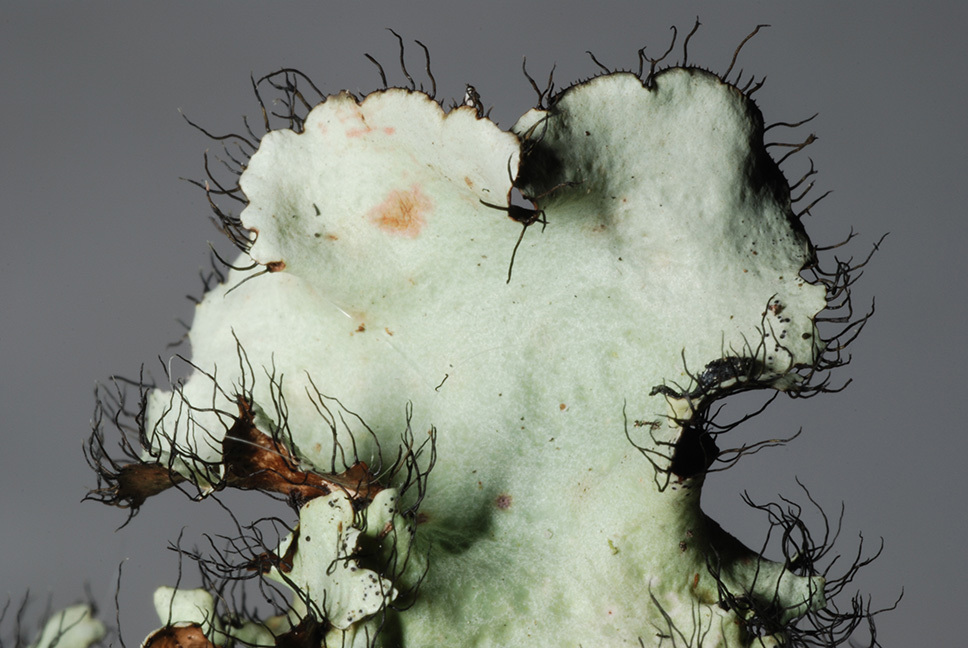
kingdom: Fungi
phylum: Ascomycota
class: Lecanoromycetes
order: Lecanorales
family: Parmeliaceae
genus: Parmotrema
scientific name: Parmotrema subrigidum
